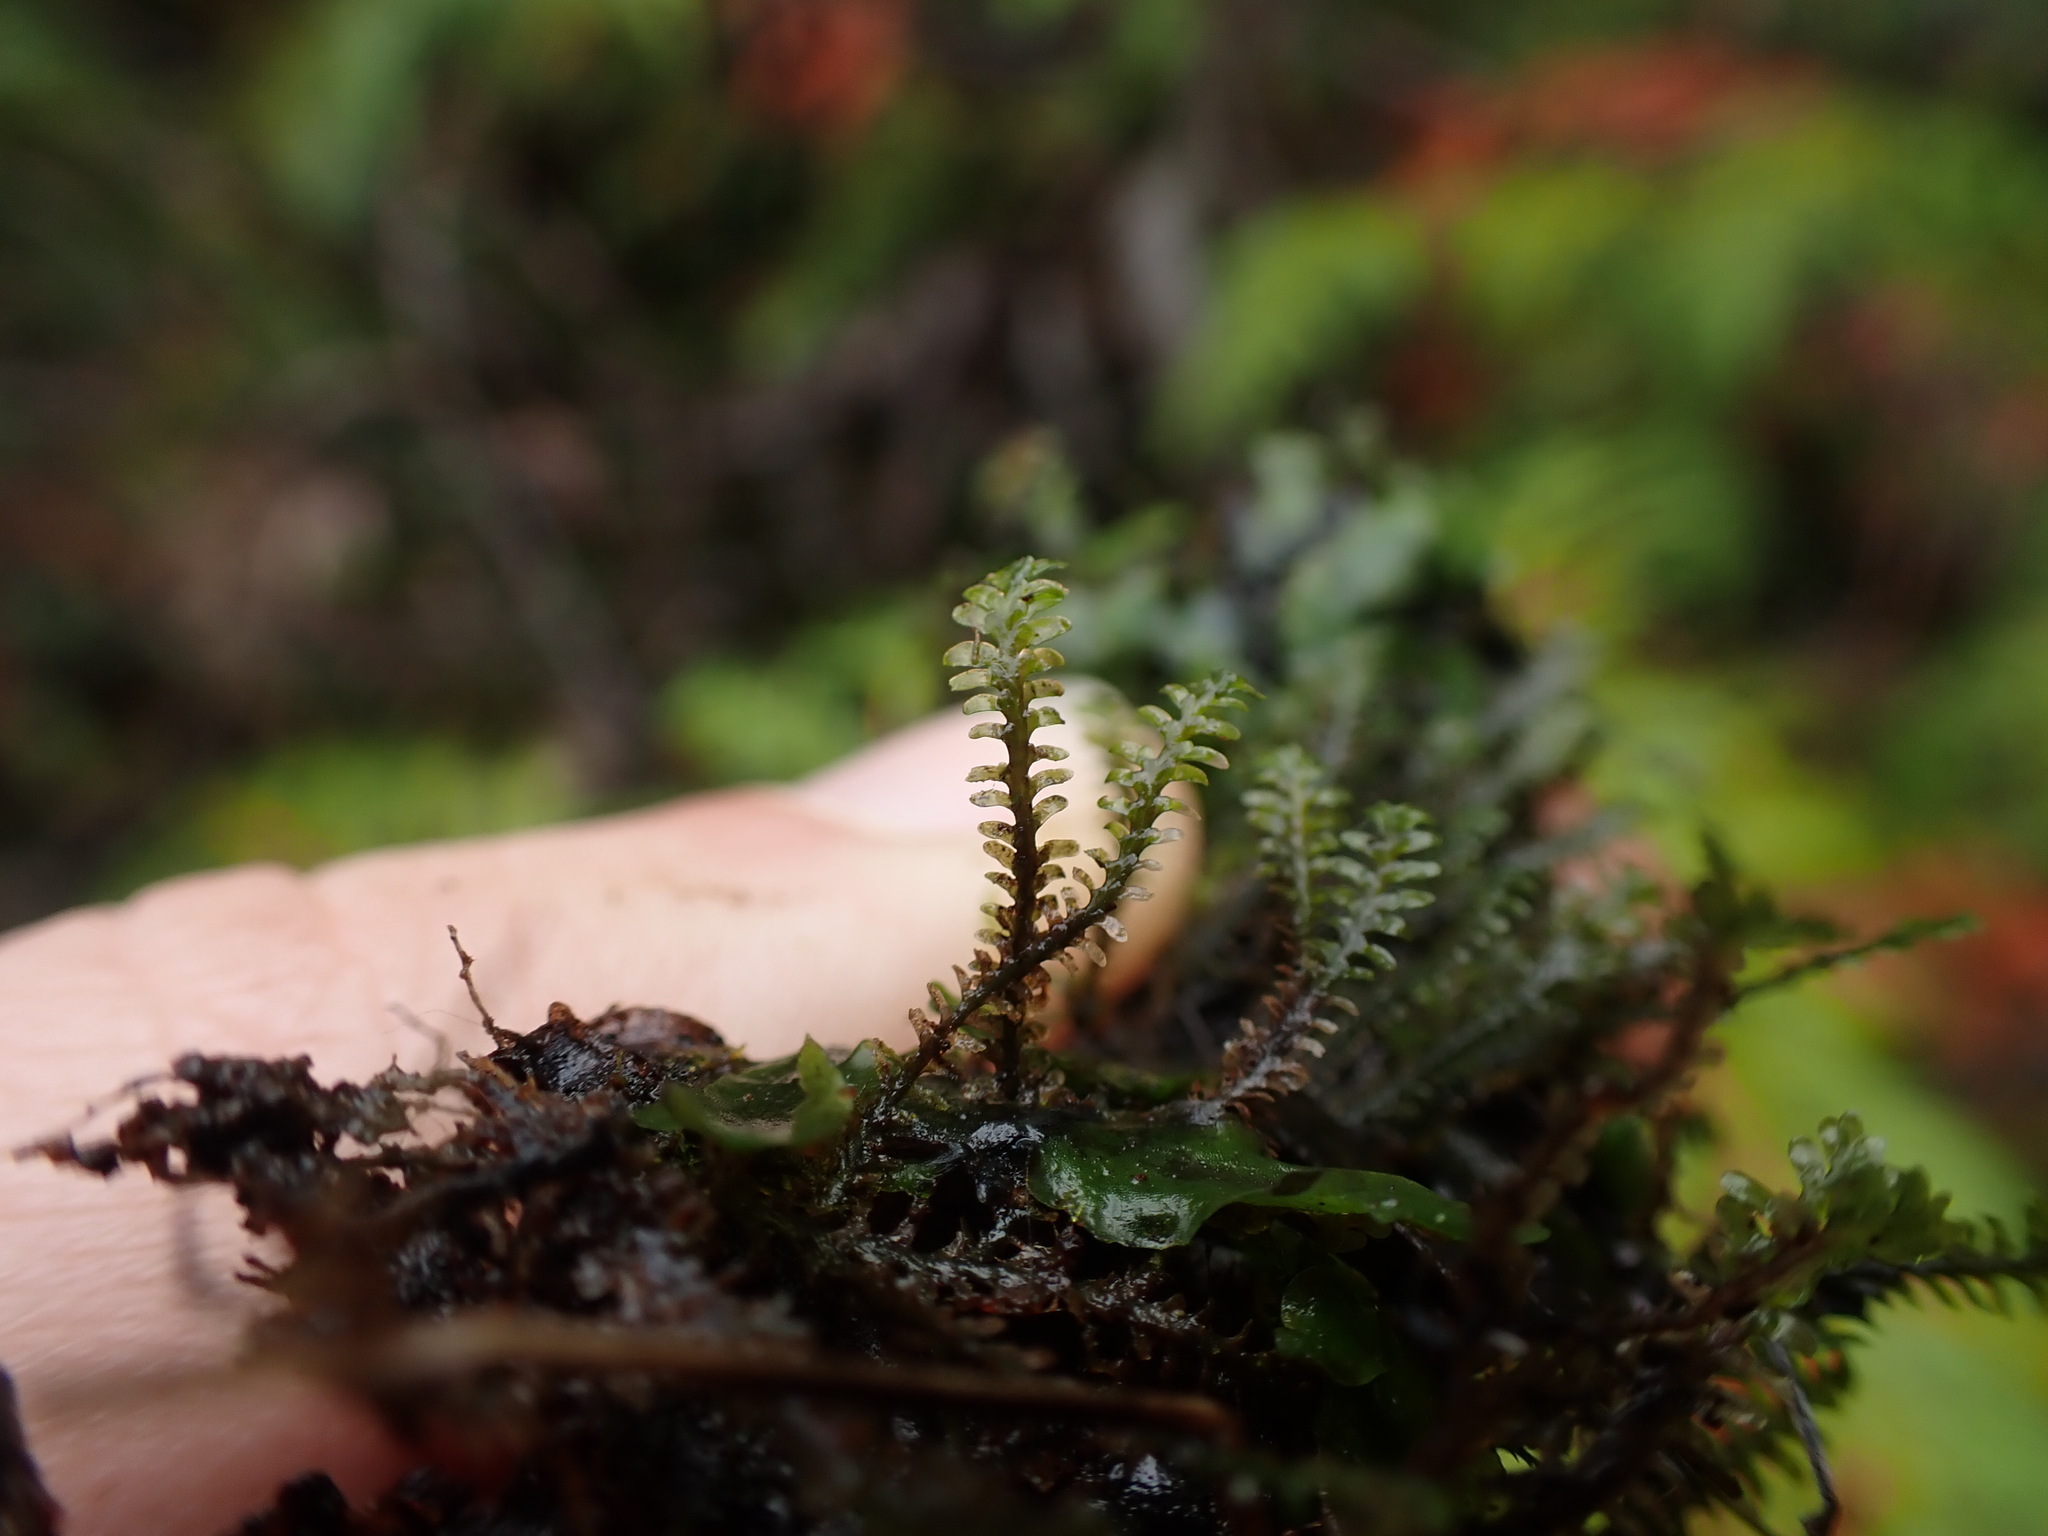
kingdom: Plantae
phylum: Marchantiophyta
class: Jungermanniopsida
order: Jungermanniales
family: Scapaniaceae
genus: Diplophyllum
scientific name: Diplophyllum albicans
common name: White earwort
